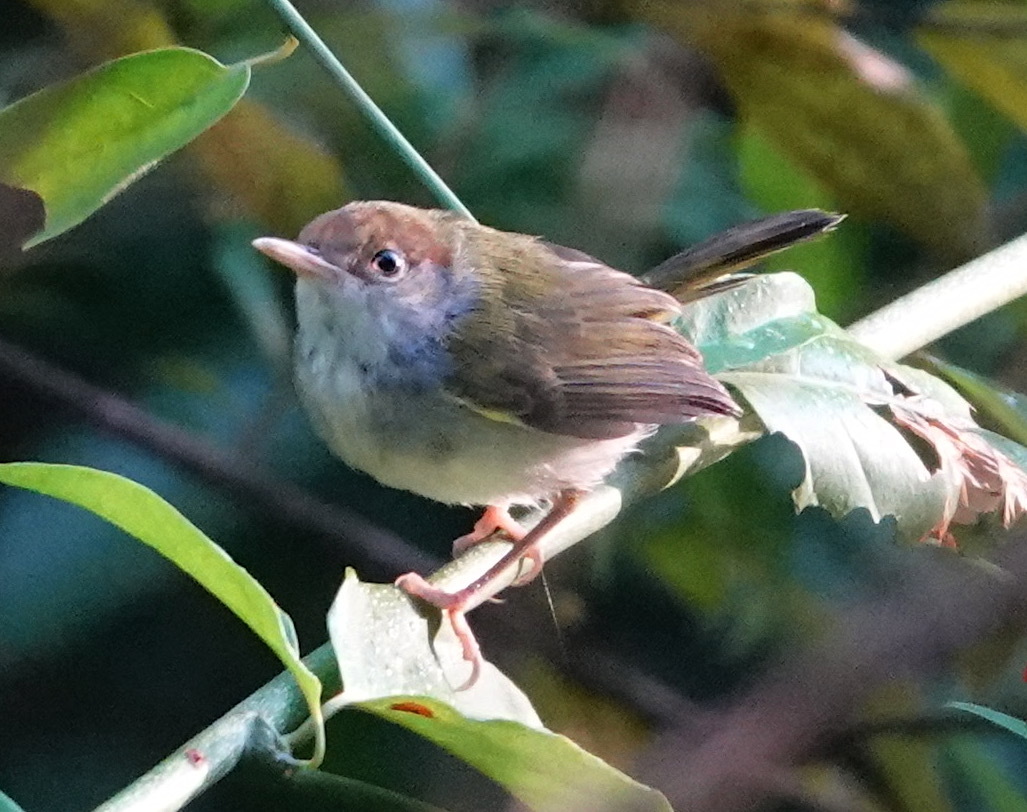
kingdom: Animalia
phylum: Chordata
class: Aves
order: Passeriformes
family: Cisticolidae
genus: Orthotomus
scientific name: Orthotomus atrogularis
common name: Dark-necked tailorbird
